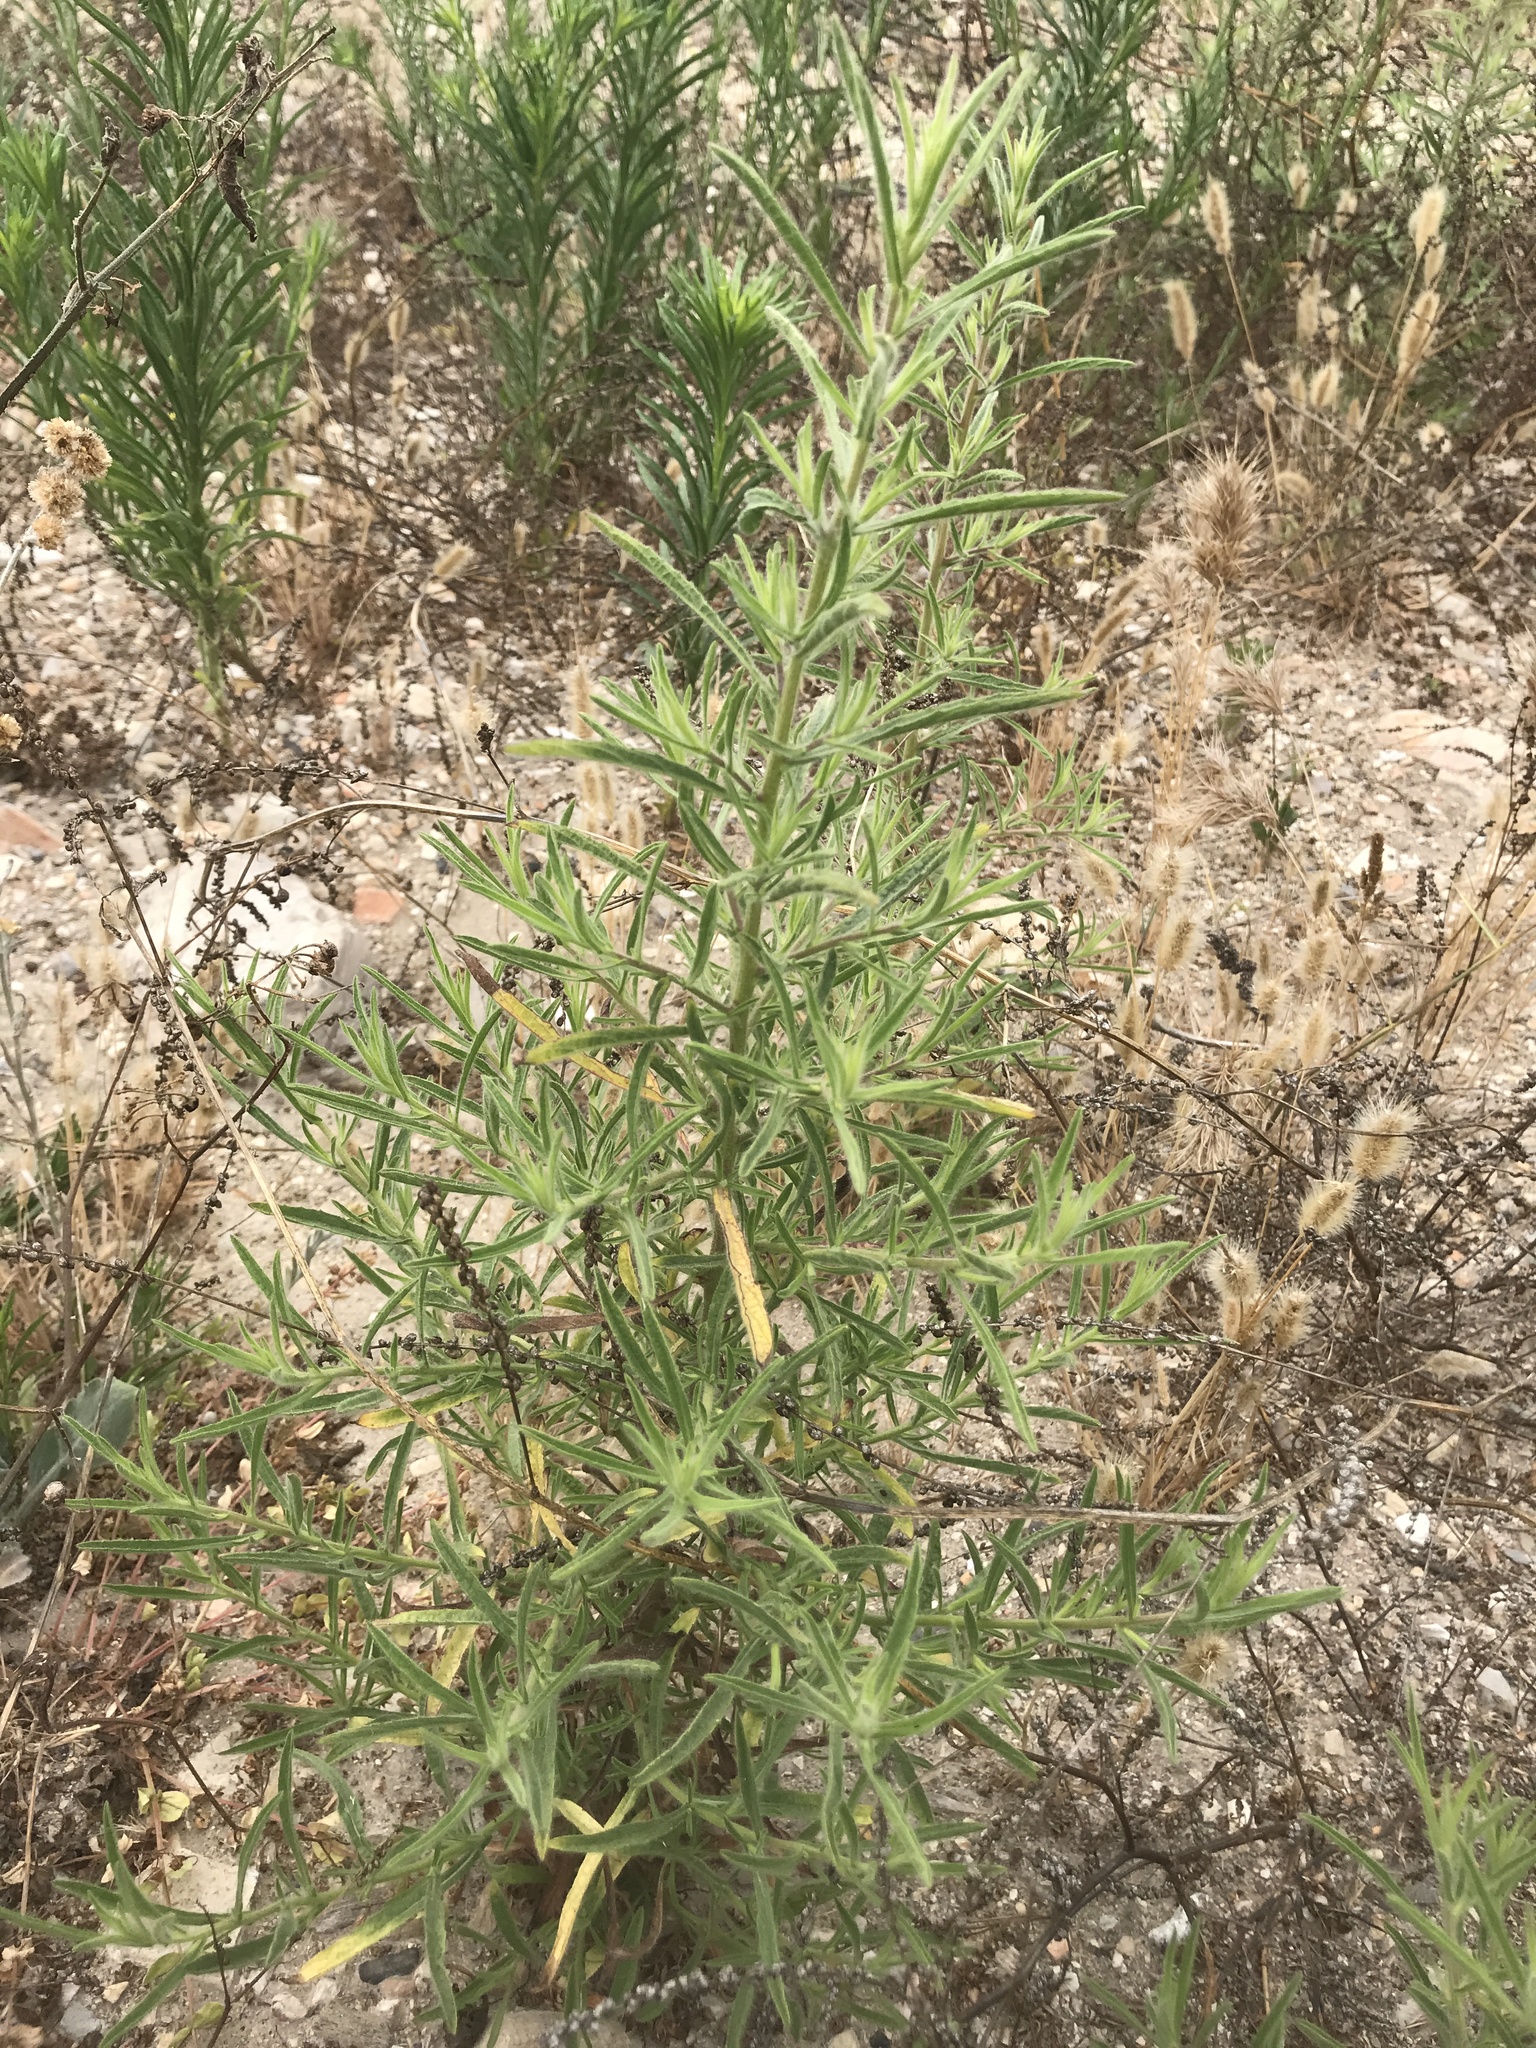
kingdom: Plantae
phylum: Tracheophyta
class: Magnoliopsida
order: Asterales
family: Asteraceae
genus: Dittrichia
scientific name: Dittrichia graveolens
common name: Stinking fleabane
